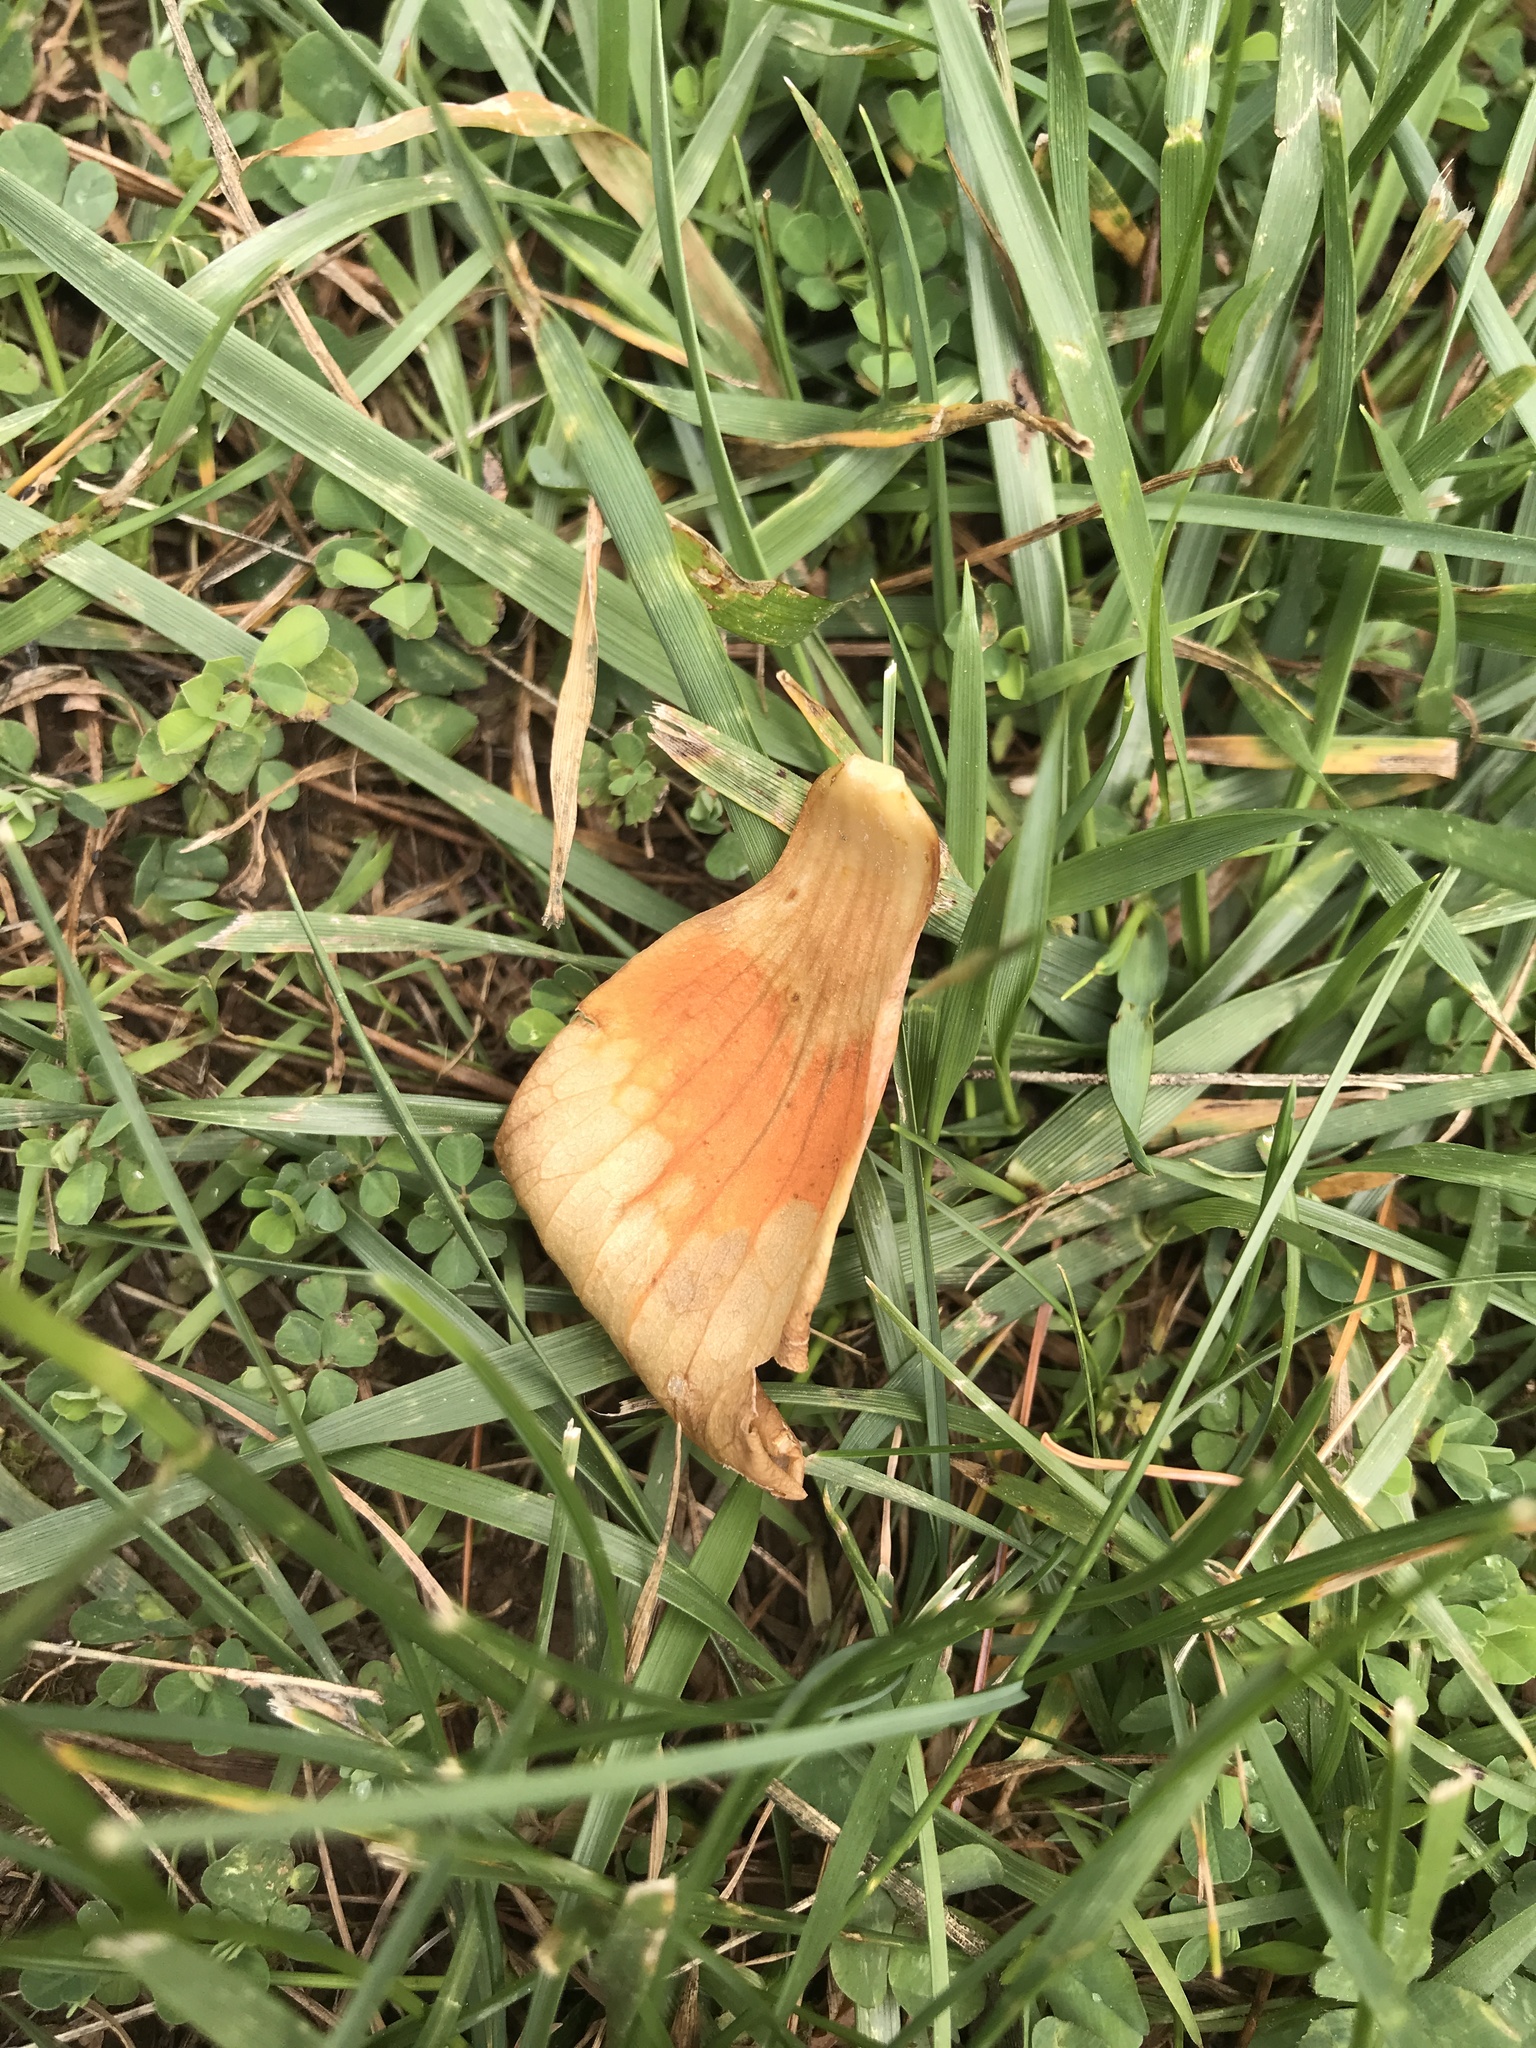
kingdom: Plantae
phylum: Tracheophyta
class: Magnoliopsida
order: Magnoliales
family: Magnoliaceae
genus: Liriodendron
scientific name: Liriodendron tulipifera
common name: Tulip tree
